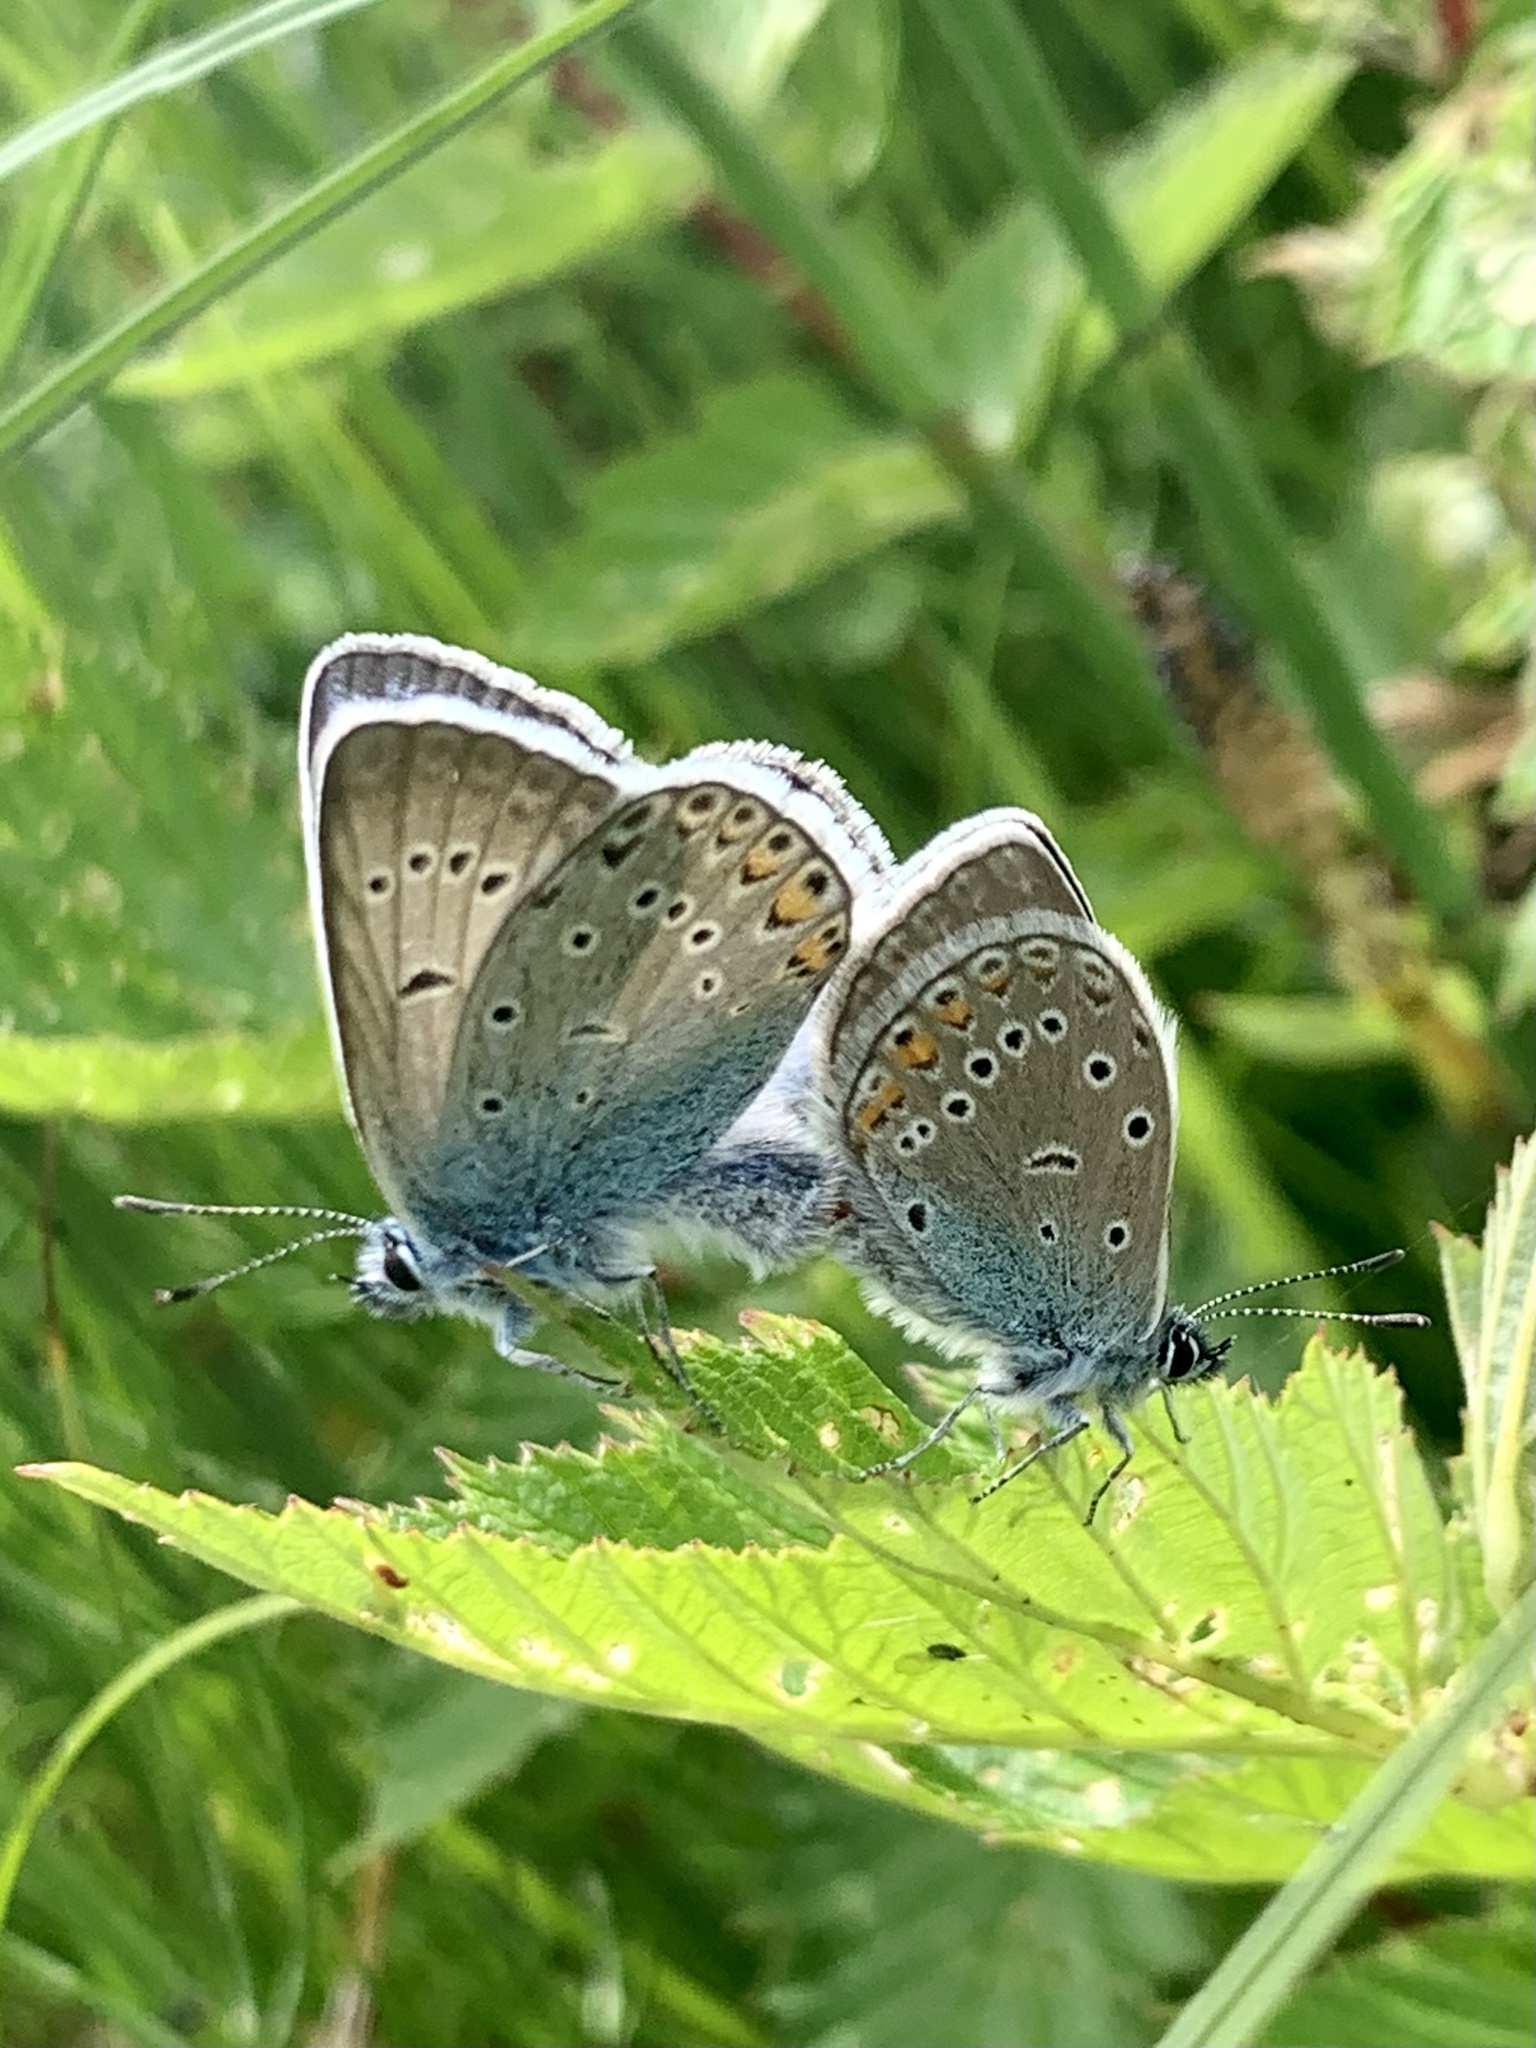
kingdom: Animalia
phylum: Arthropoda
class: Insecta
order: Lepidoptera
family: Lycaenidae
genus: Plebejus
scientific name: Plebejus amanda
